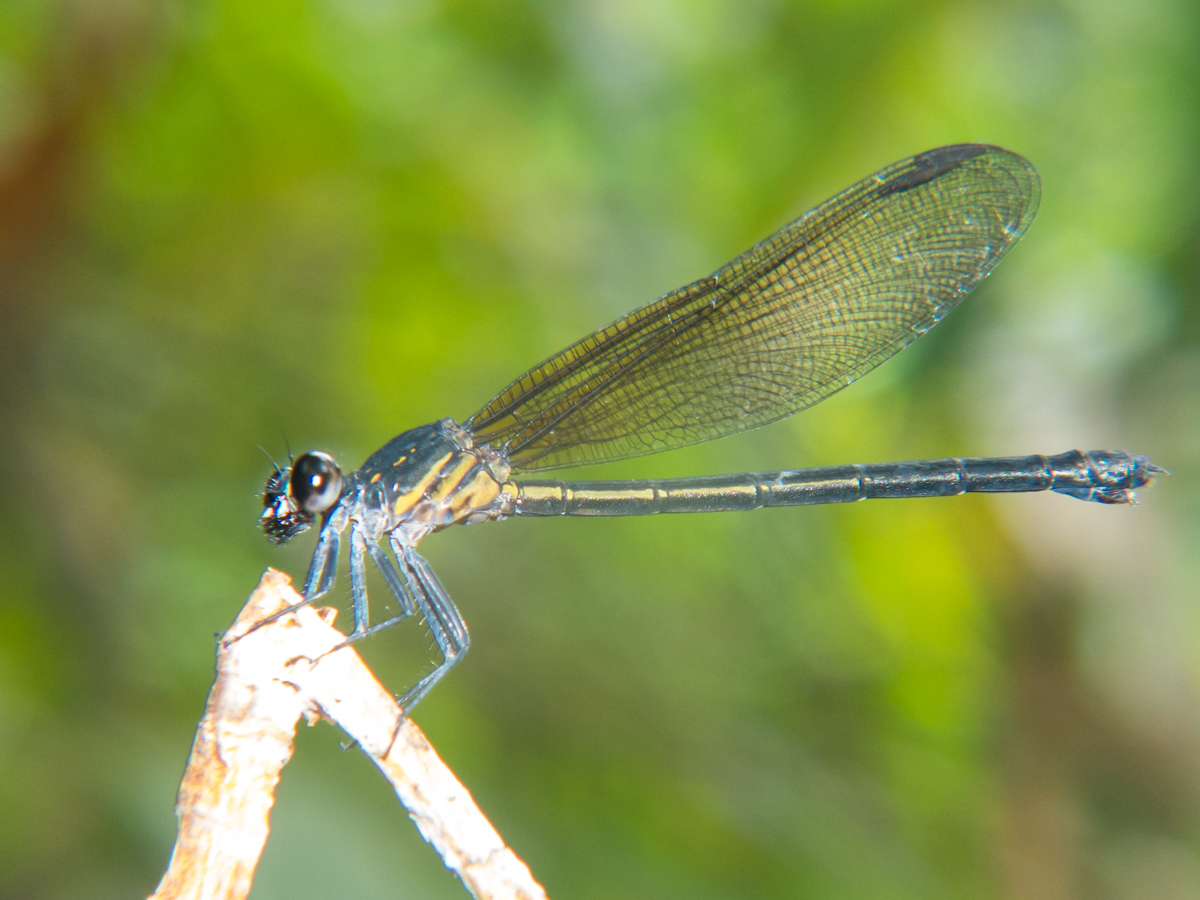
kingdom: Animalia
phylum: Arthropoda
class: Insecta
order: Odonata
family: Euphaeidae
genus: Euphaea
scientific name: Euphaea masoni
